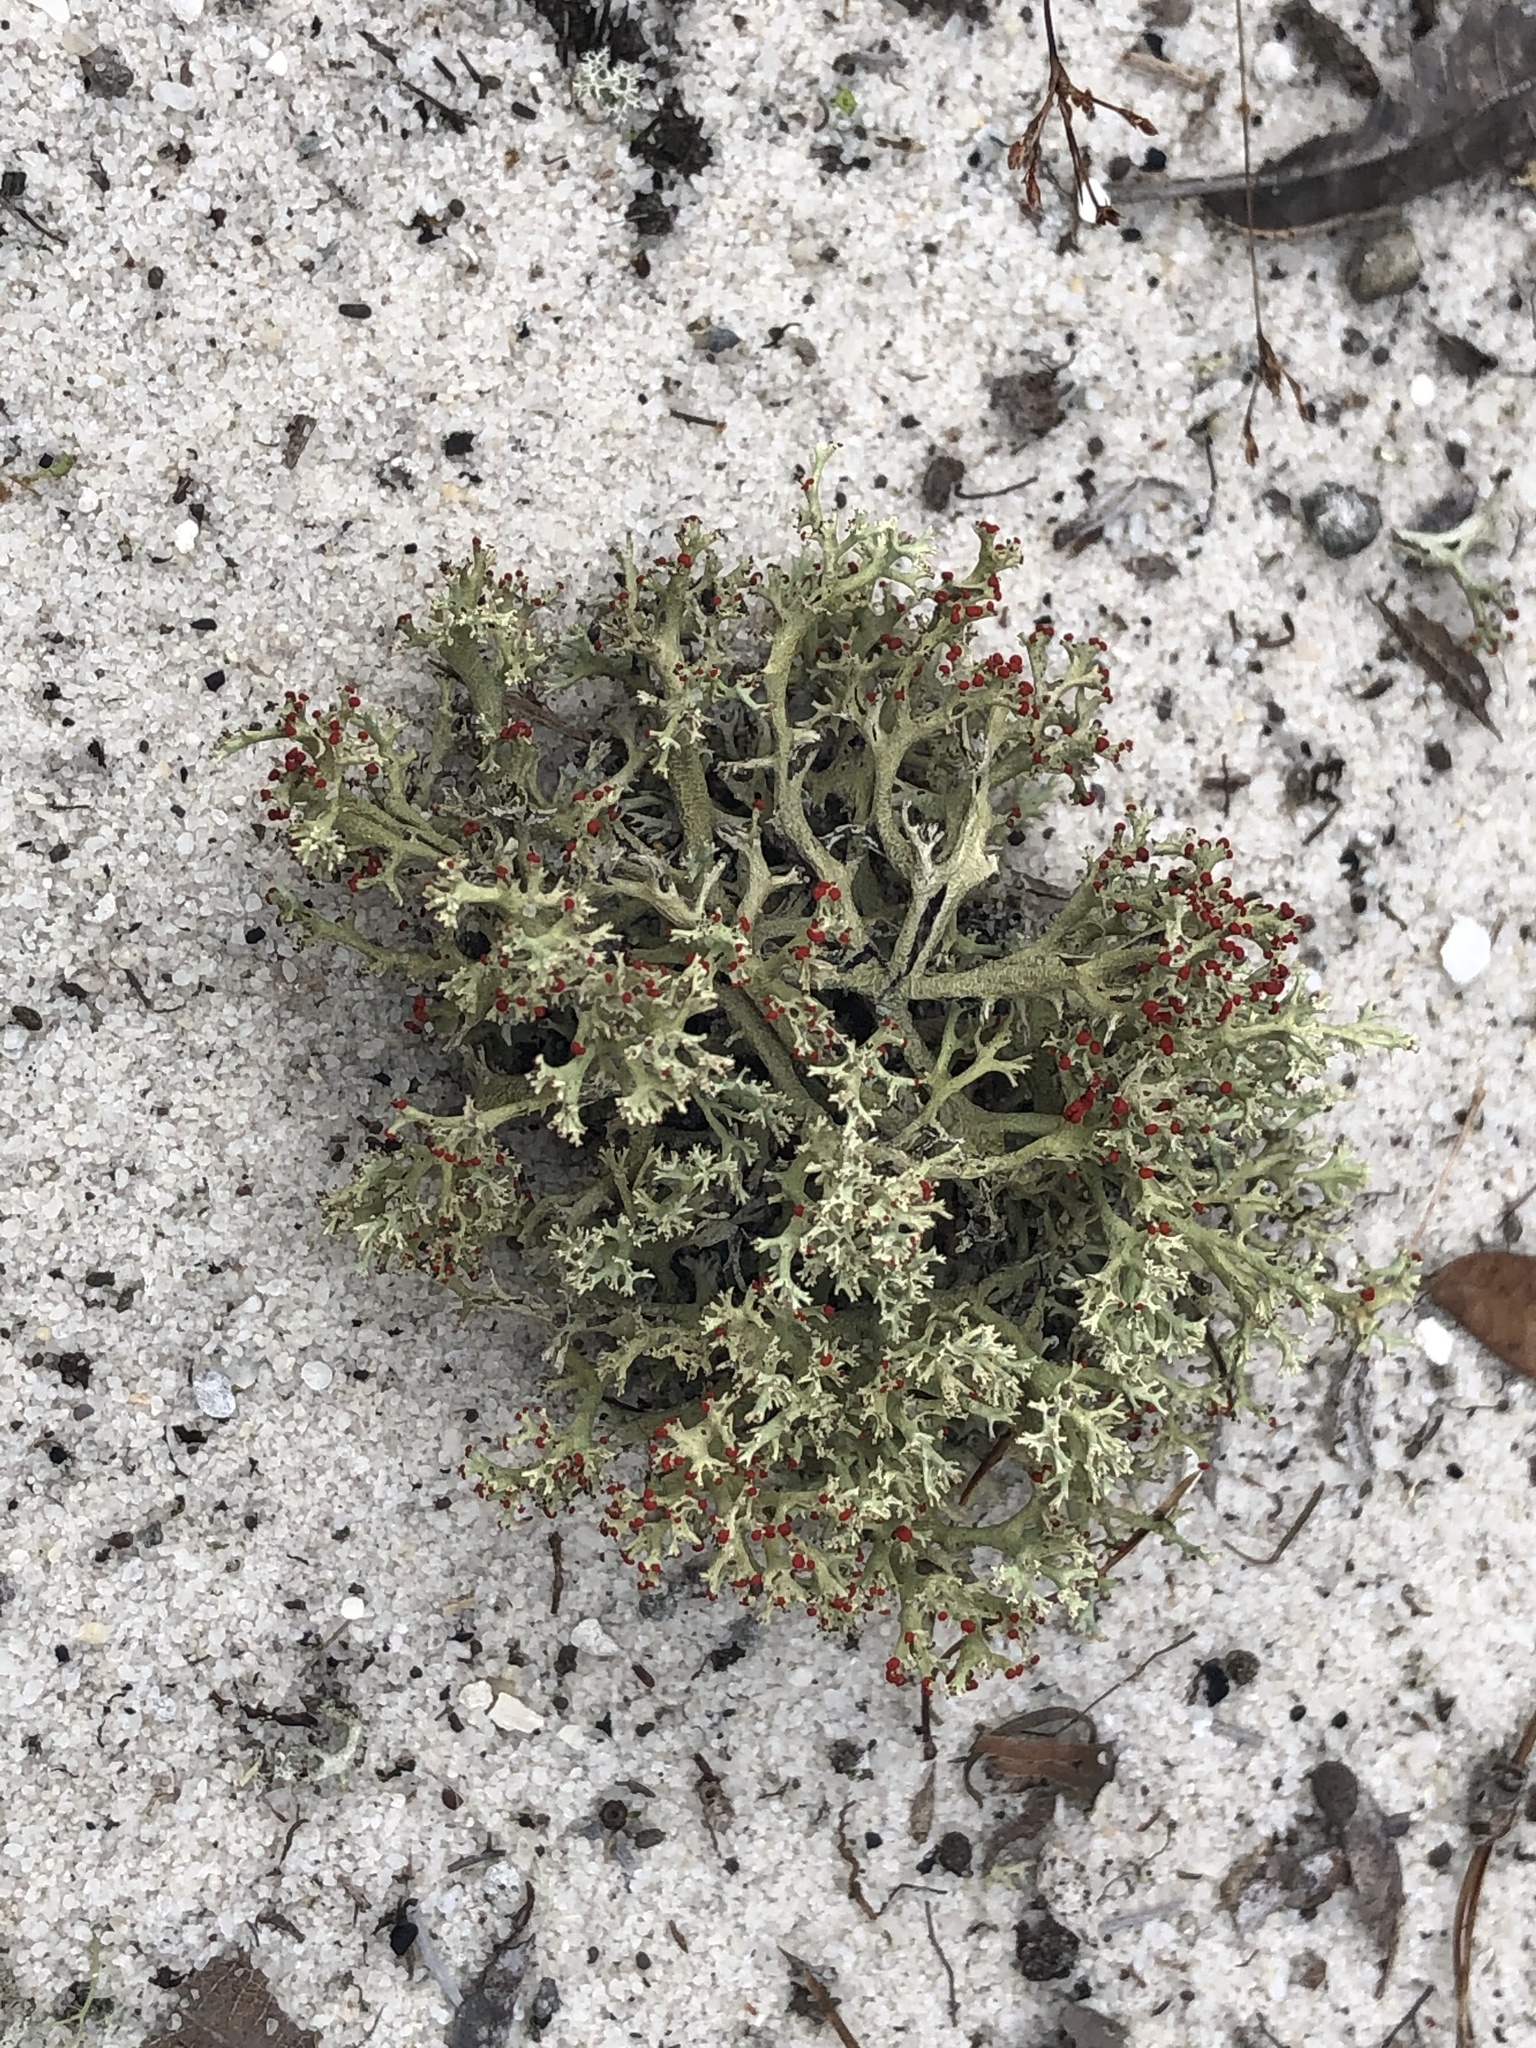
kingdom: Fungi
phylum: Ascomycota
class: Lecanoromycetes
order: Lecanorales
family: Cladoniaceae
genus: Cladonia
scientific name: Cladonia leporina
